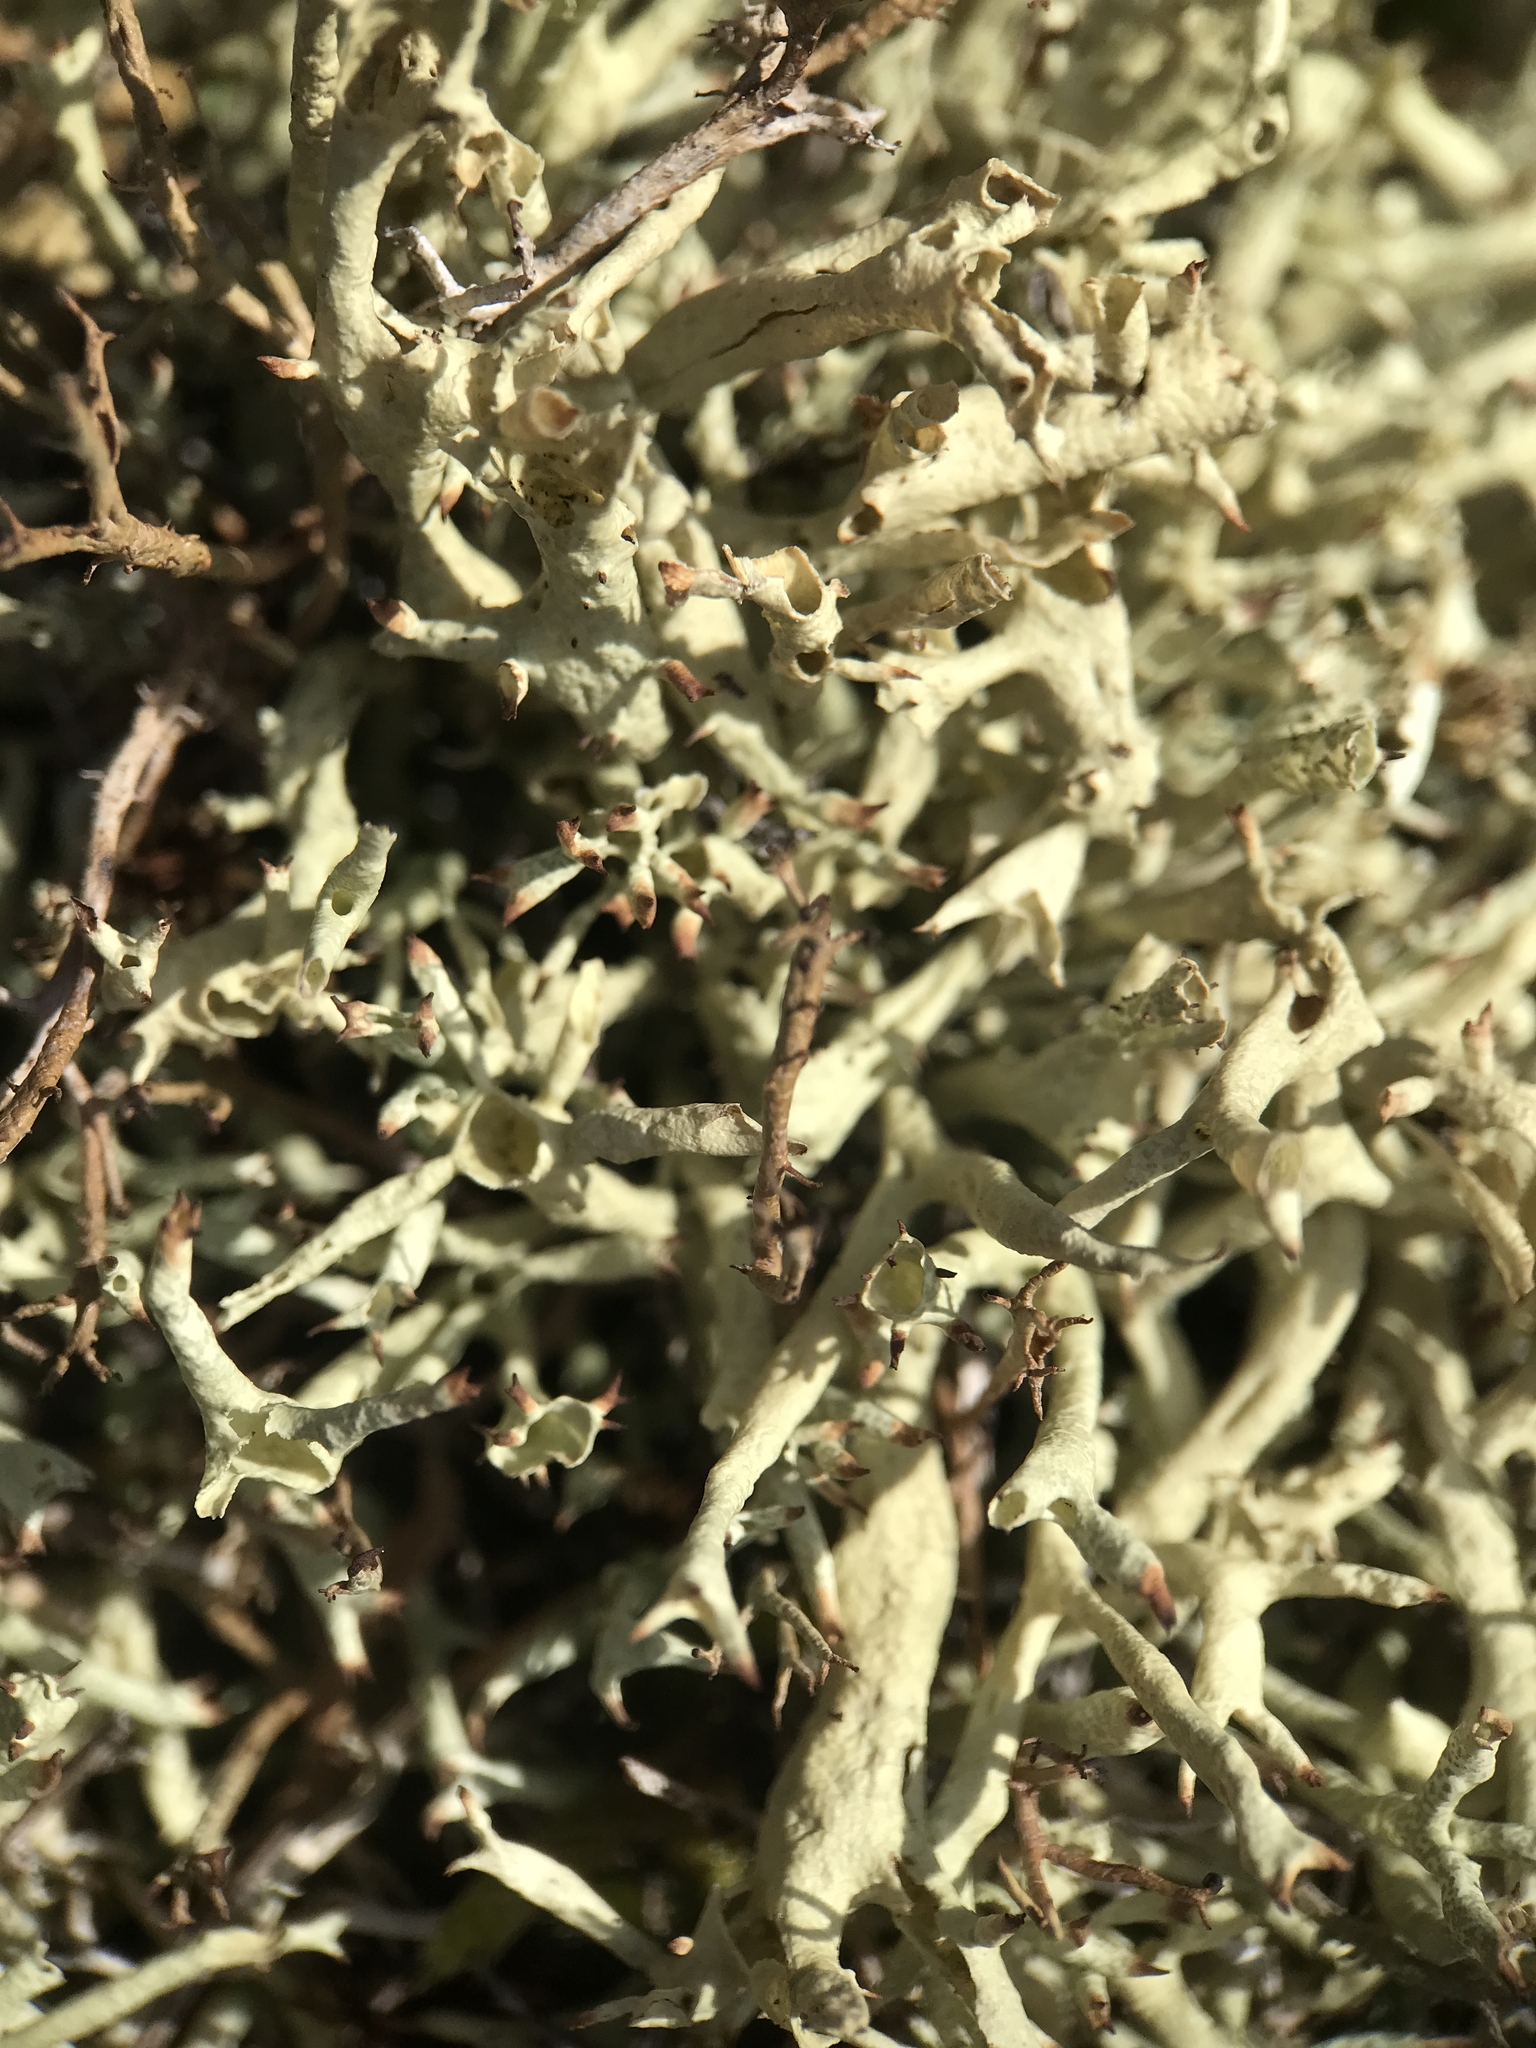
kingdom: Fungi
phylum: Ascomycota
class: Lecanoromycetes
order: Lecanorales
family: Cladoniaceae
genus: Cladonia
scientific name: Cladonia uncialis
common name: Thorn lichen
